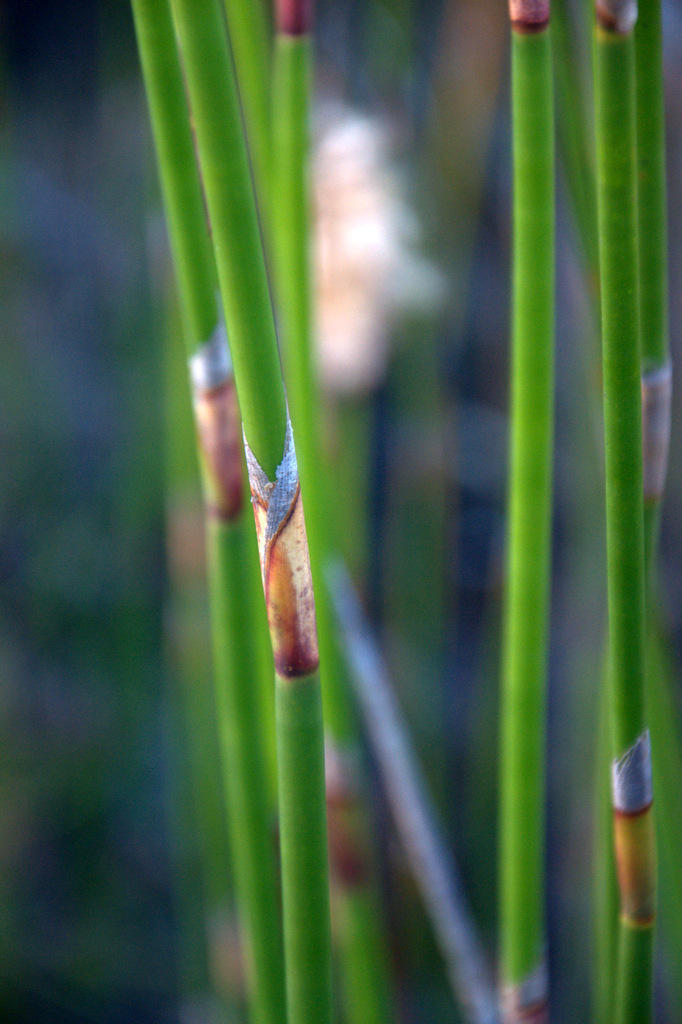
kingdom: Plantae
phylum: Tracheophyta
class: Liliopsida
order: Poales
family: Restionaceae
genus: Ceratocaryum
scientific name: Ceratocaryum persistens
